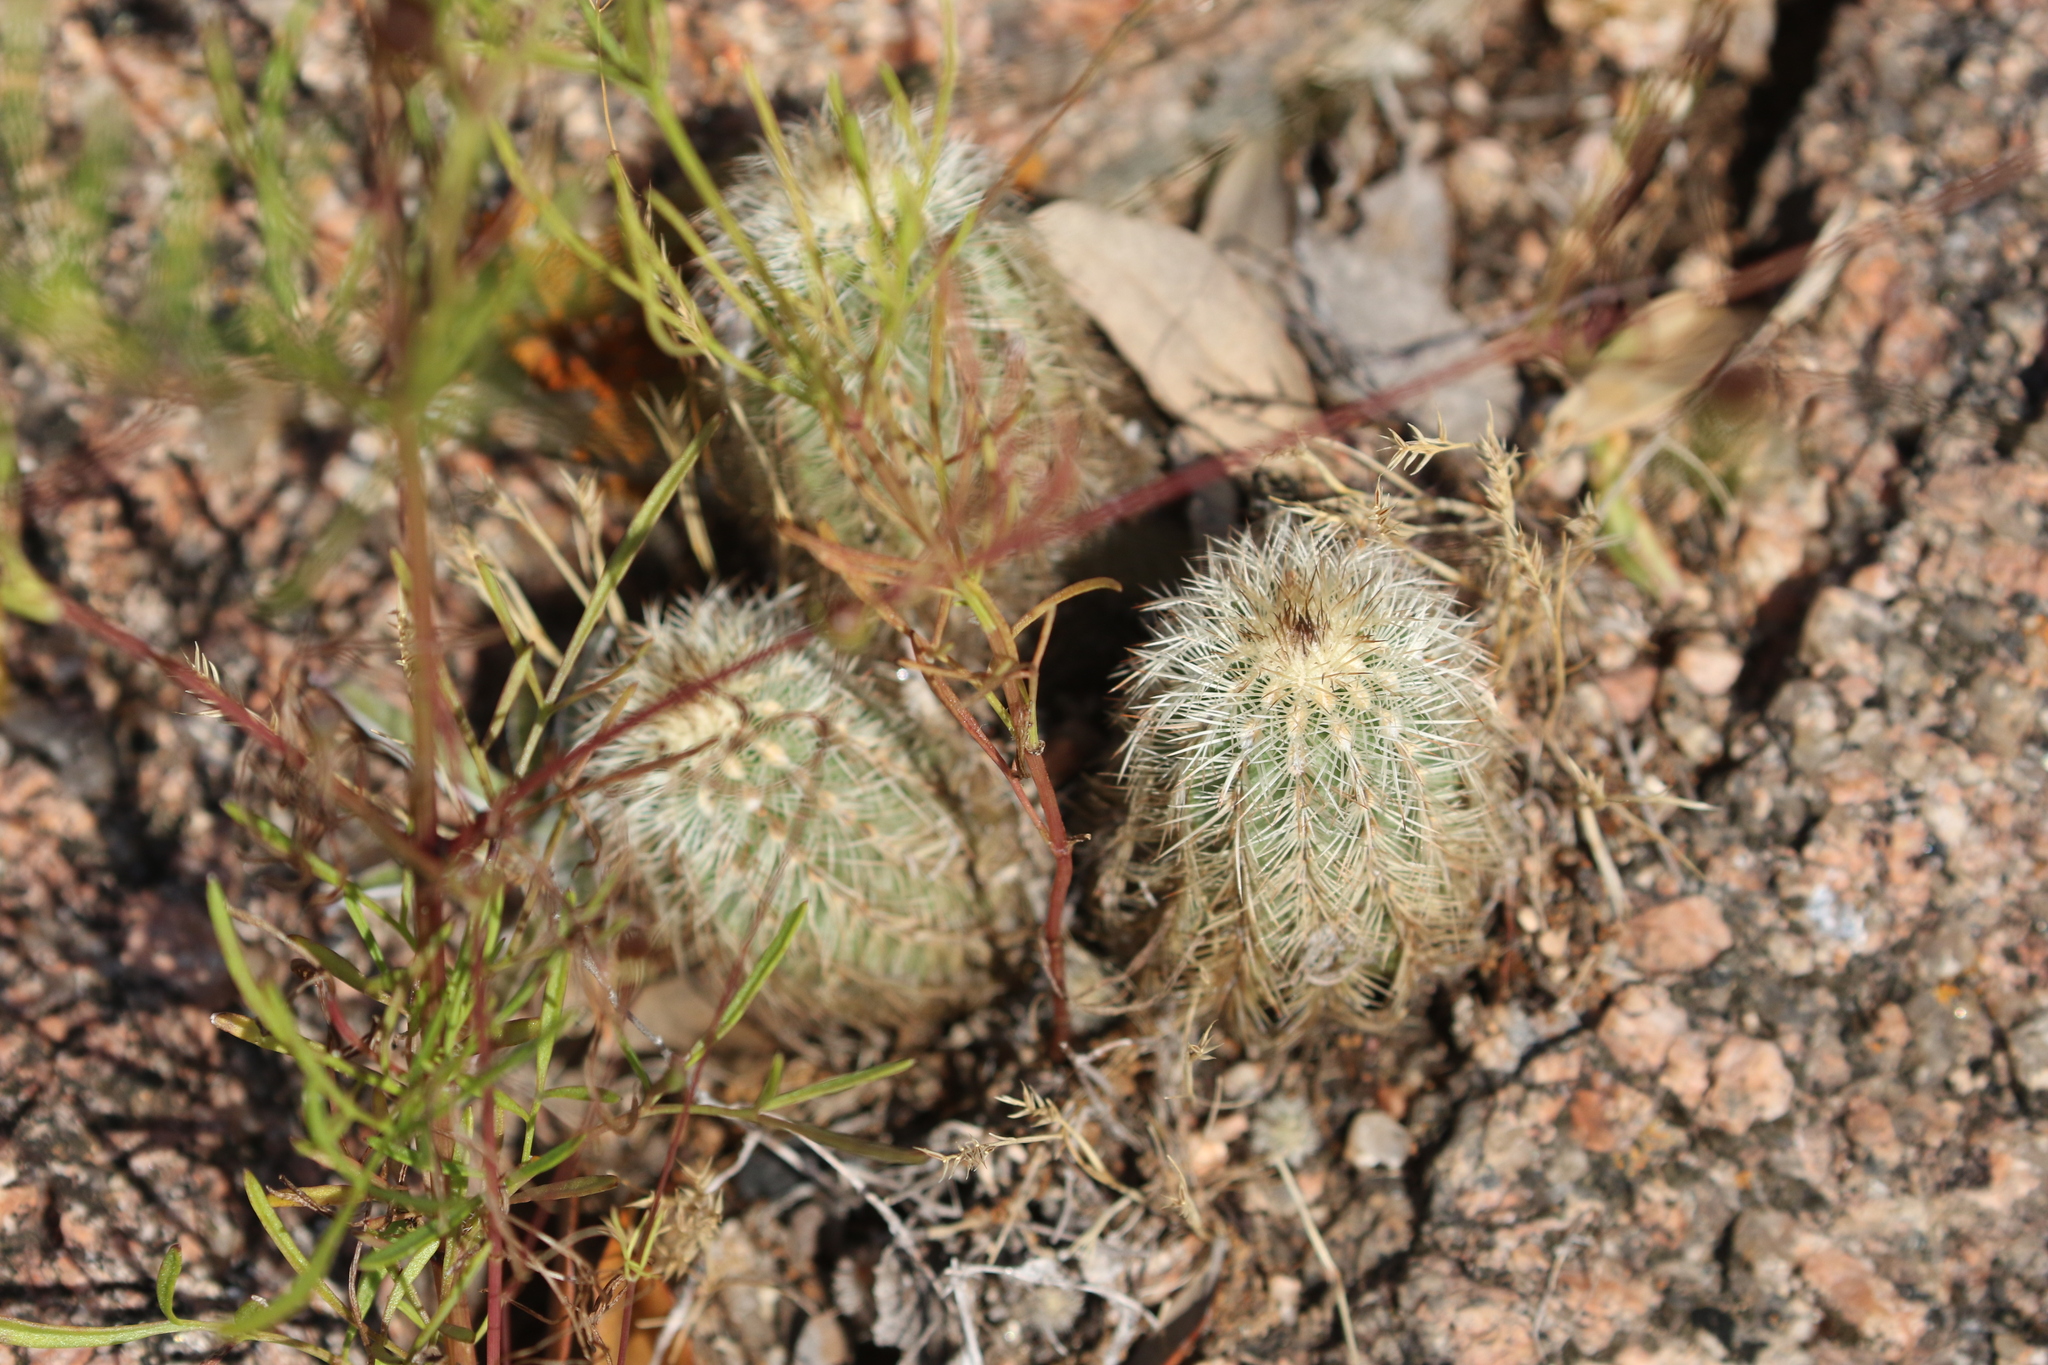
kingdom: Plantae
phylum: Tracheophyta
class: Magnoliopsida
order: Caryophyllales
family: Cactaceae
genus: Echinocereus
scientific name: Echinocereus reichenbachii
